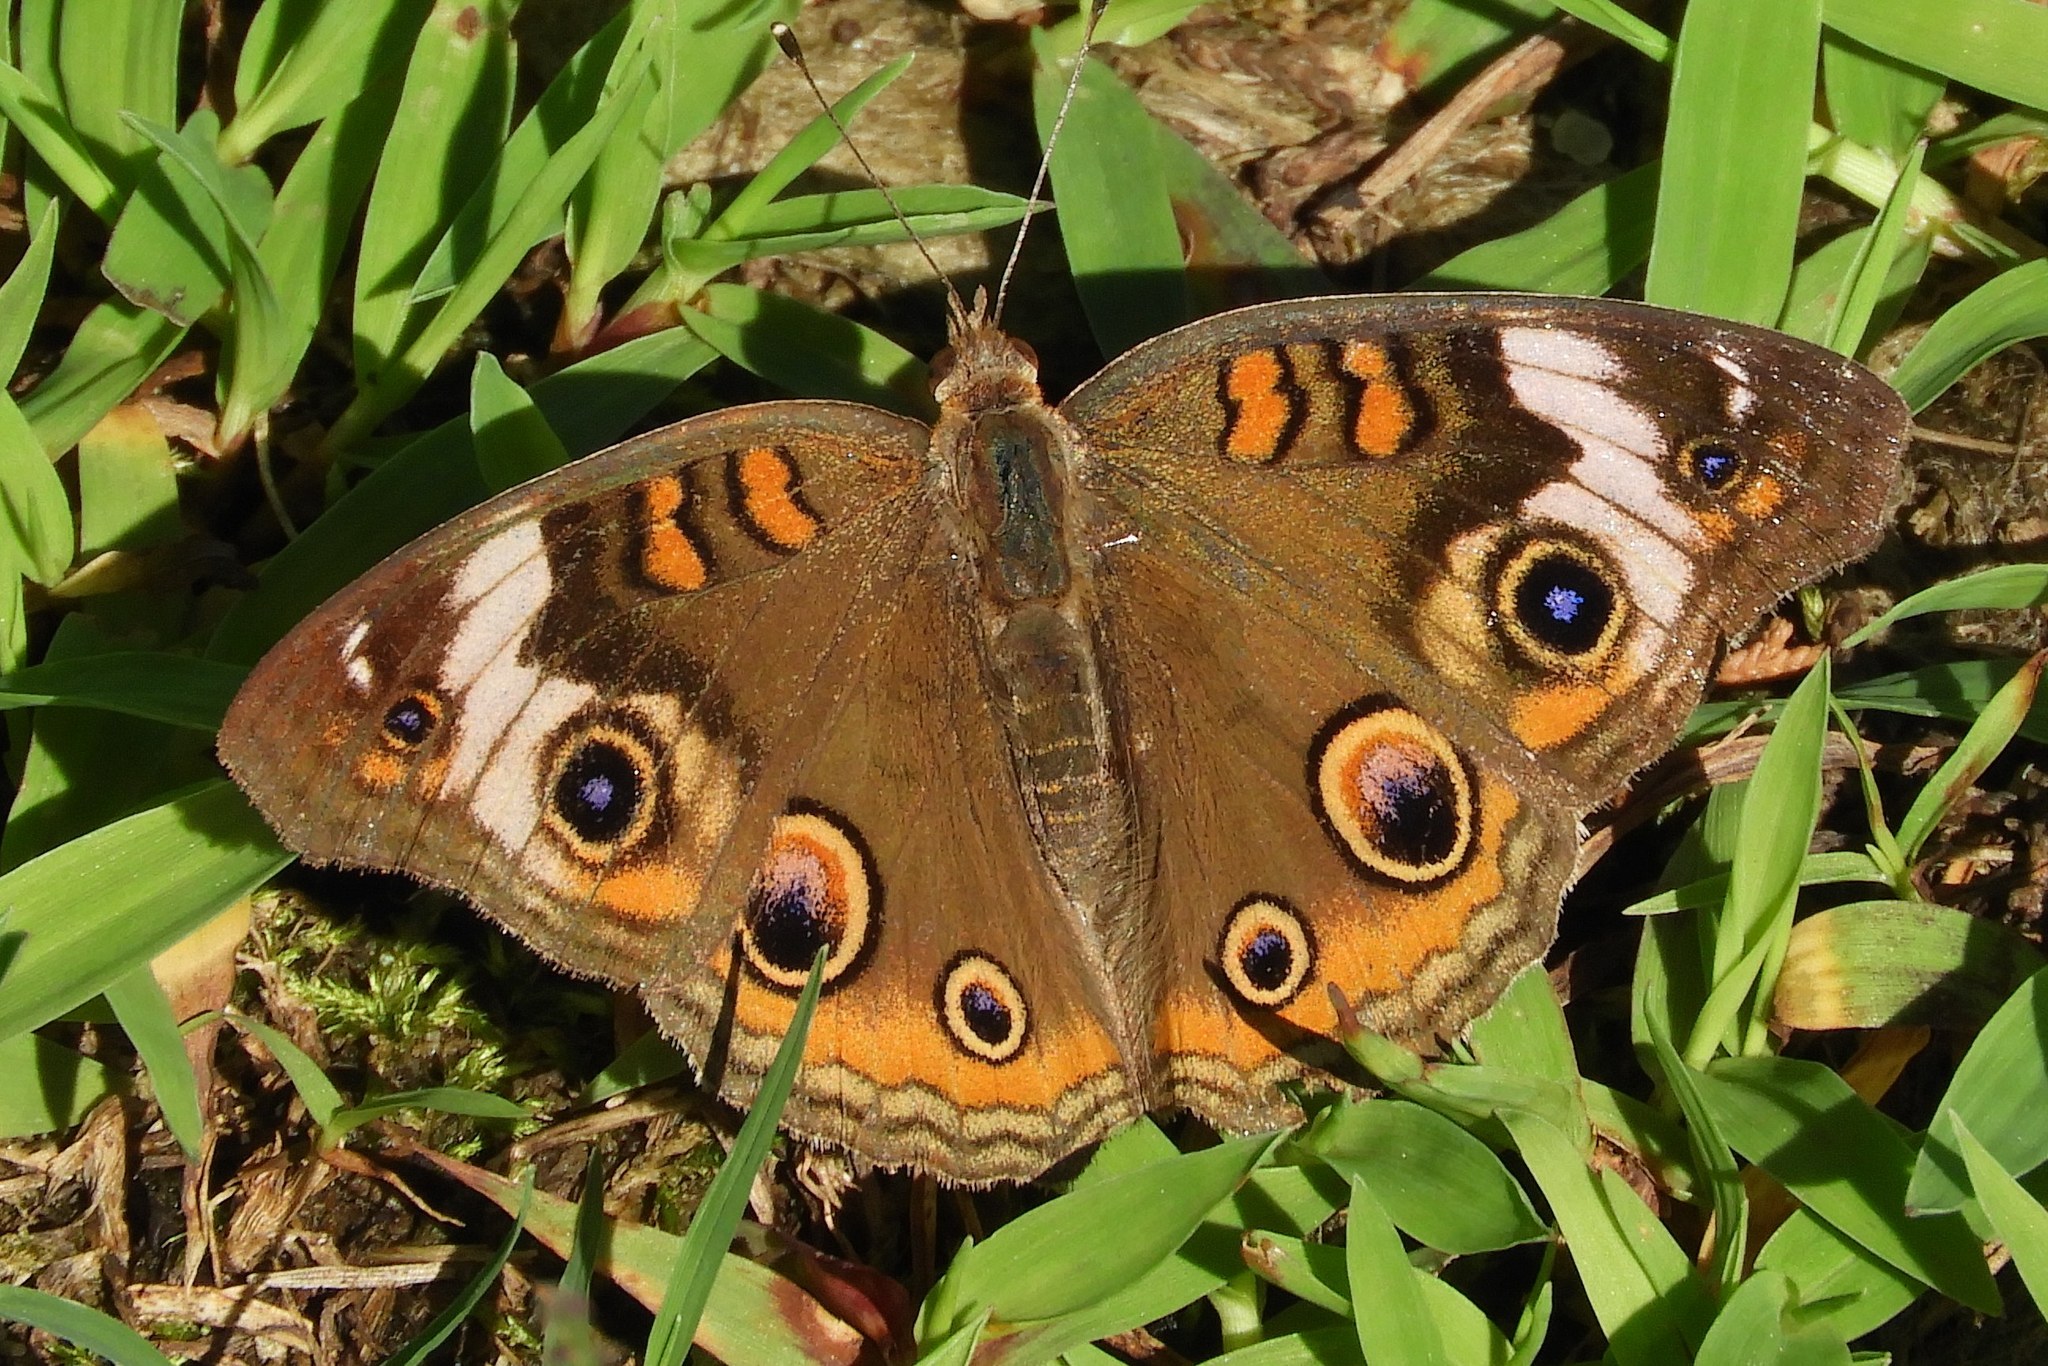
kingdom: Animalia
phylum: Arthropoda
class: Insecta
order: Lepidoptera
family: Nymphalidae
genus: Junonia
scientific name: Junonia coenia
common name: Common buckeye
